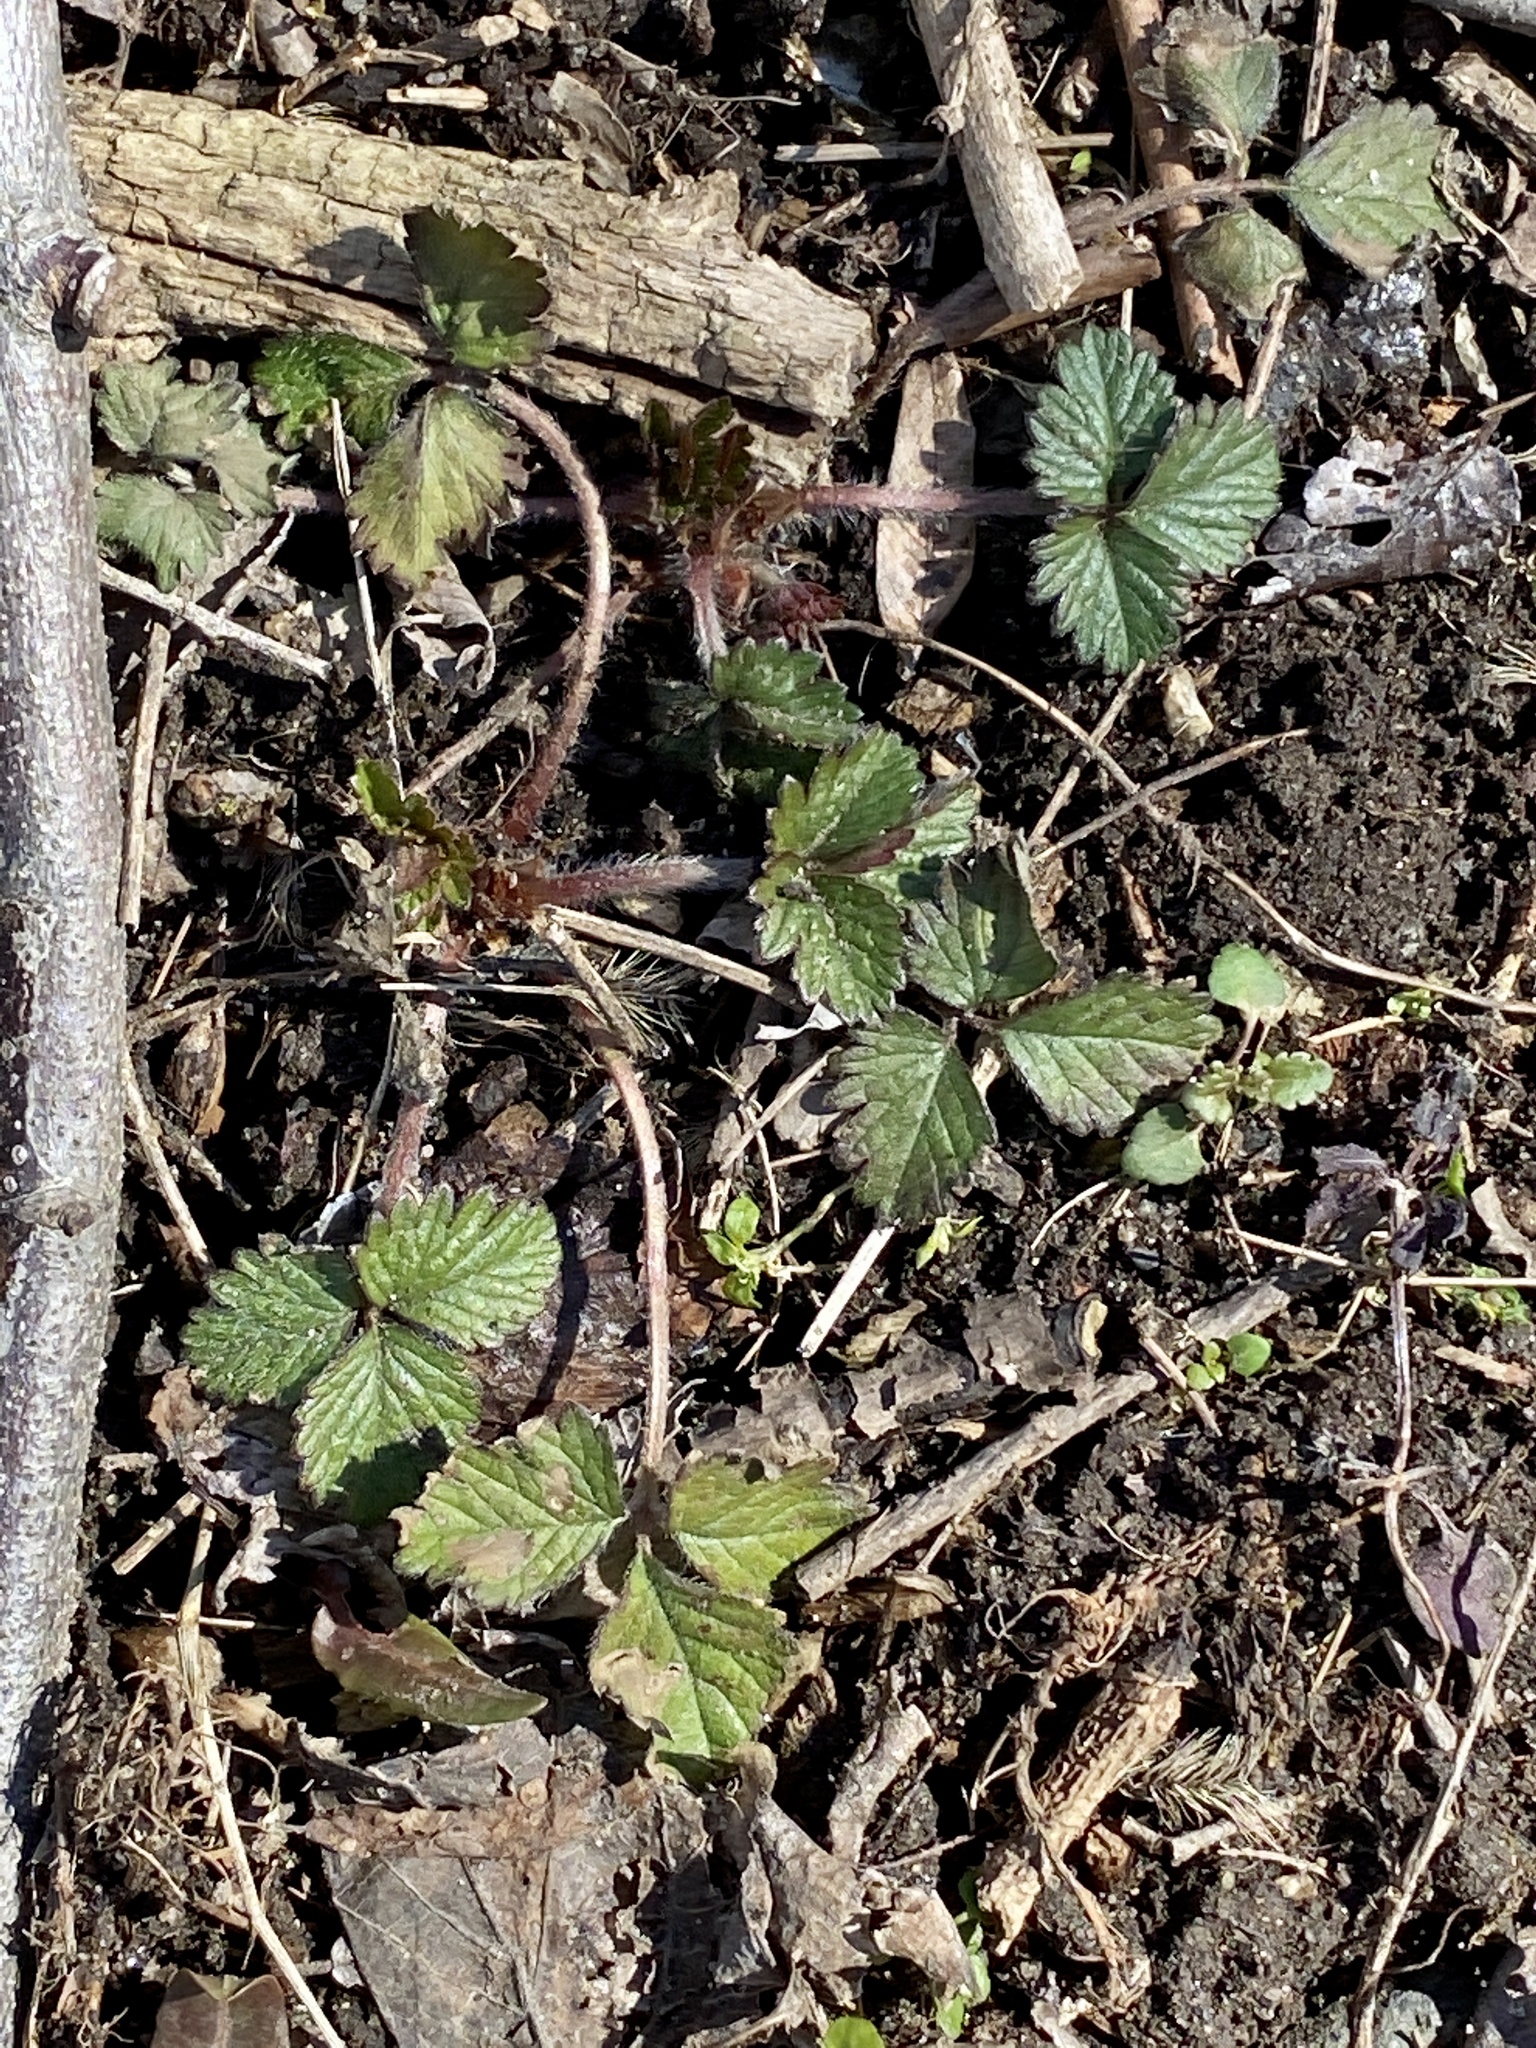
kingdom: Plantae
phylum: Tracheophyta
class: Magnoliopsida
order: Rosales
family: Rosaceae
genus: Potentilla
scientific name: Potentilla indica
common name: Yellow-flowered strawberry
